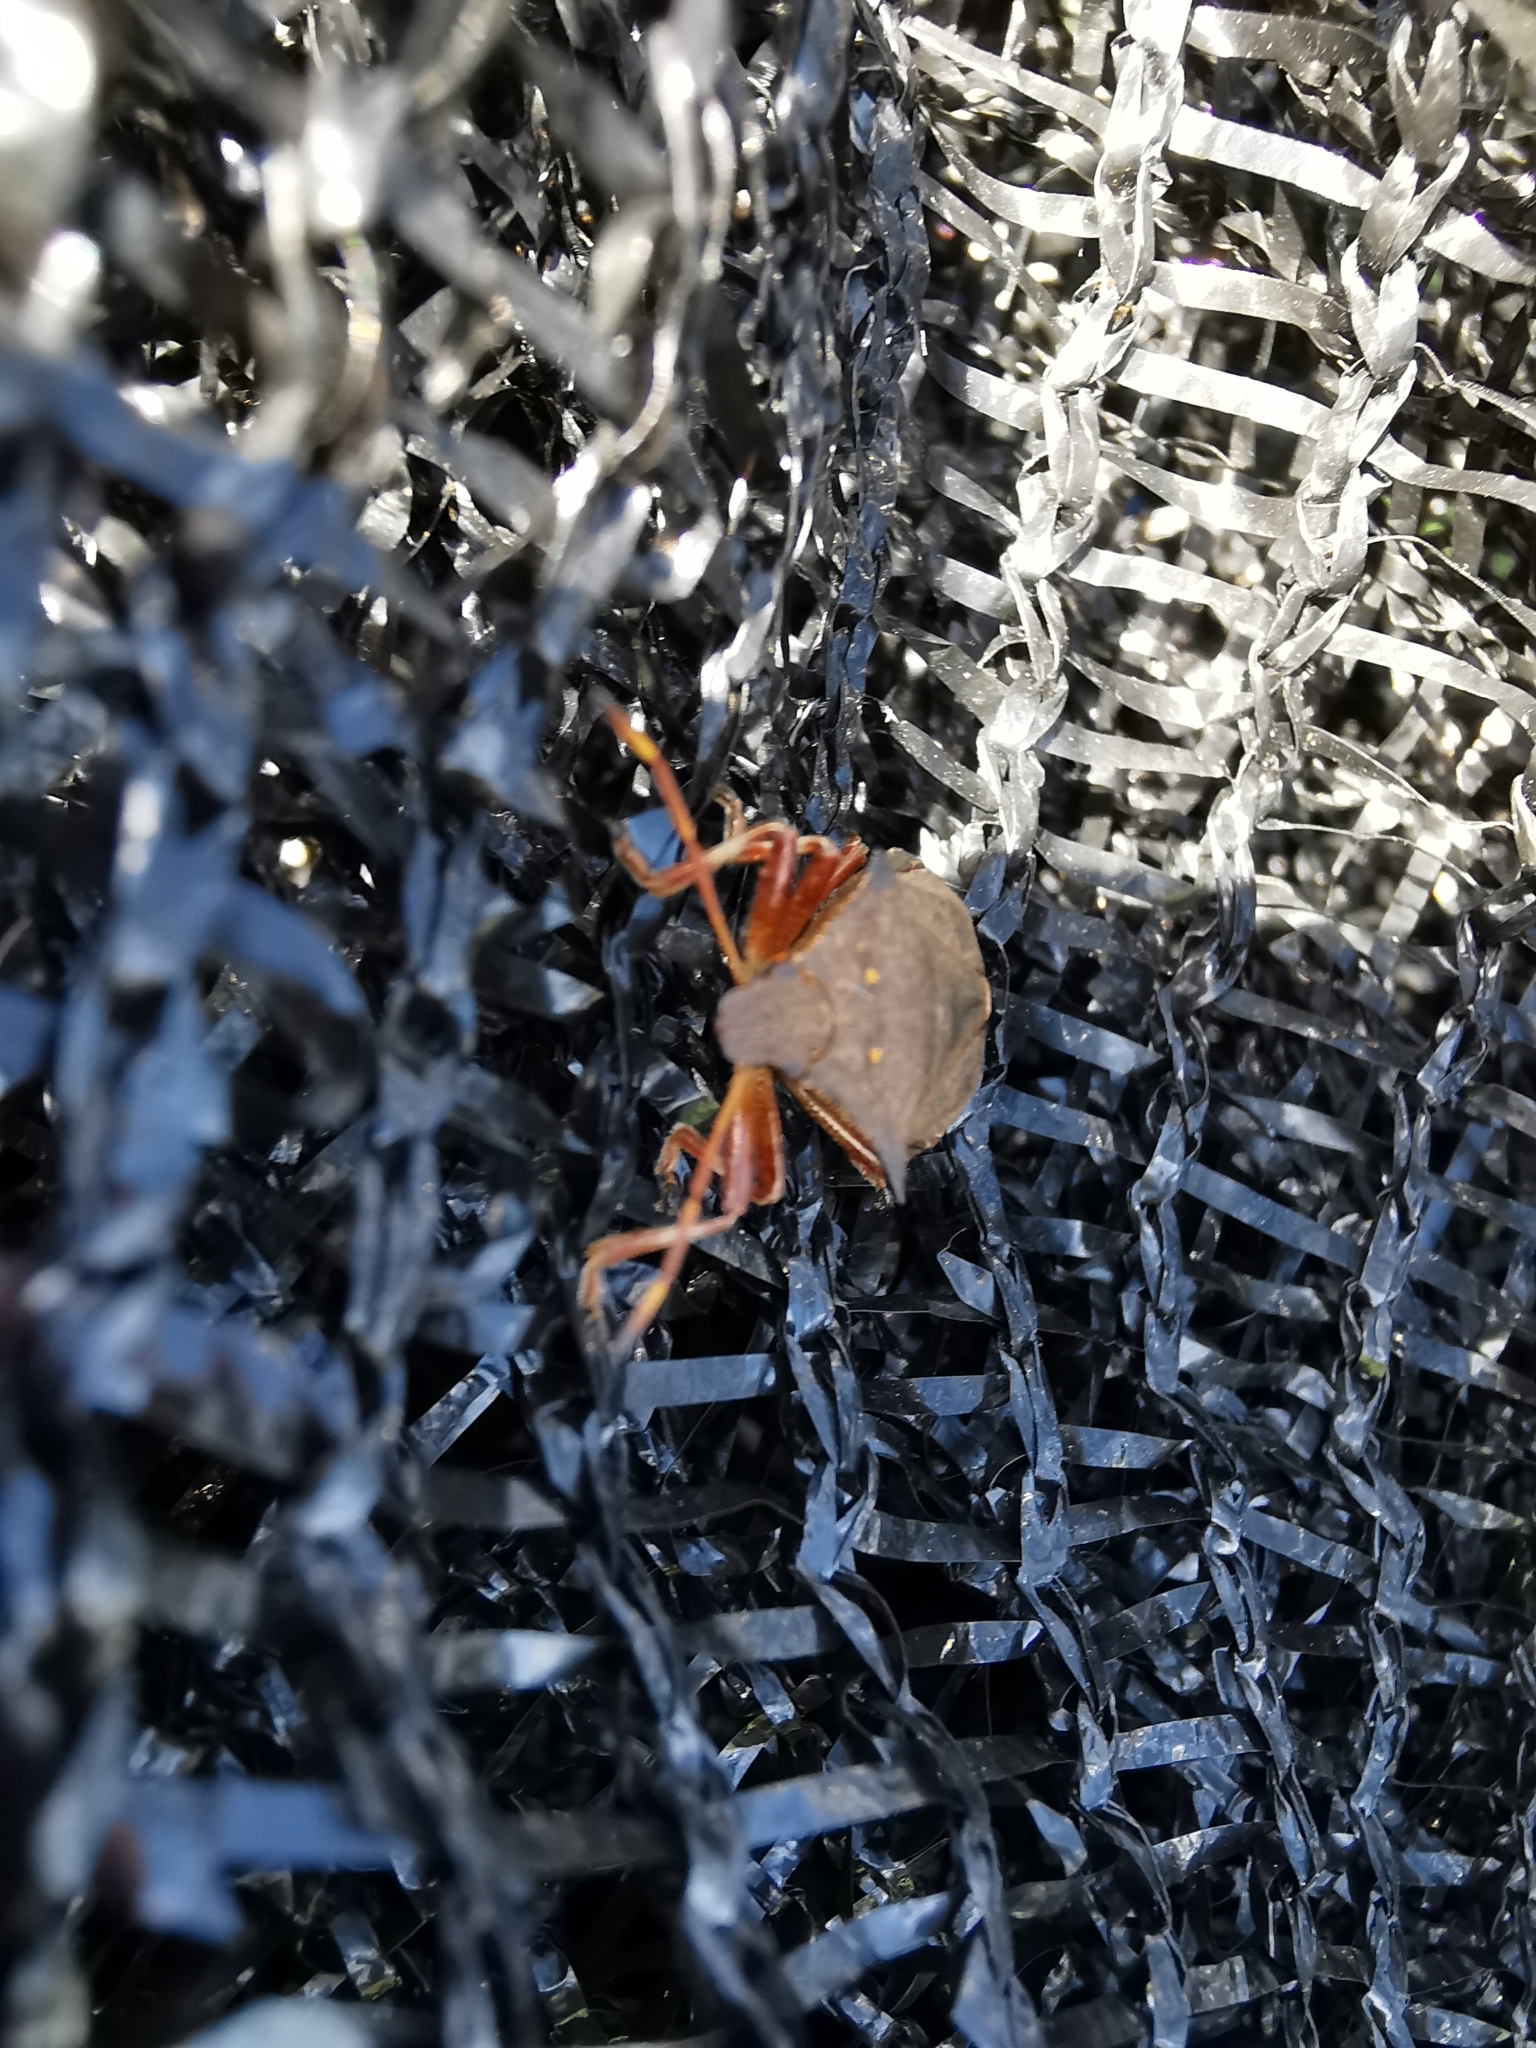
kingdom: Animalia
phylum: Arthropoda
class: Insecta
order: Hemiptera
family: Pentatomidae
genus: Picromerus
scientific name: Picromerus bidens
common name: Spiked shieldbug
